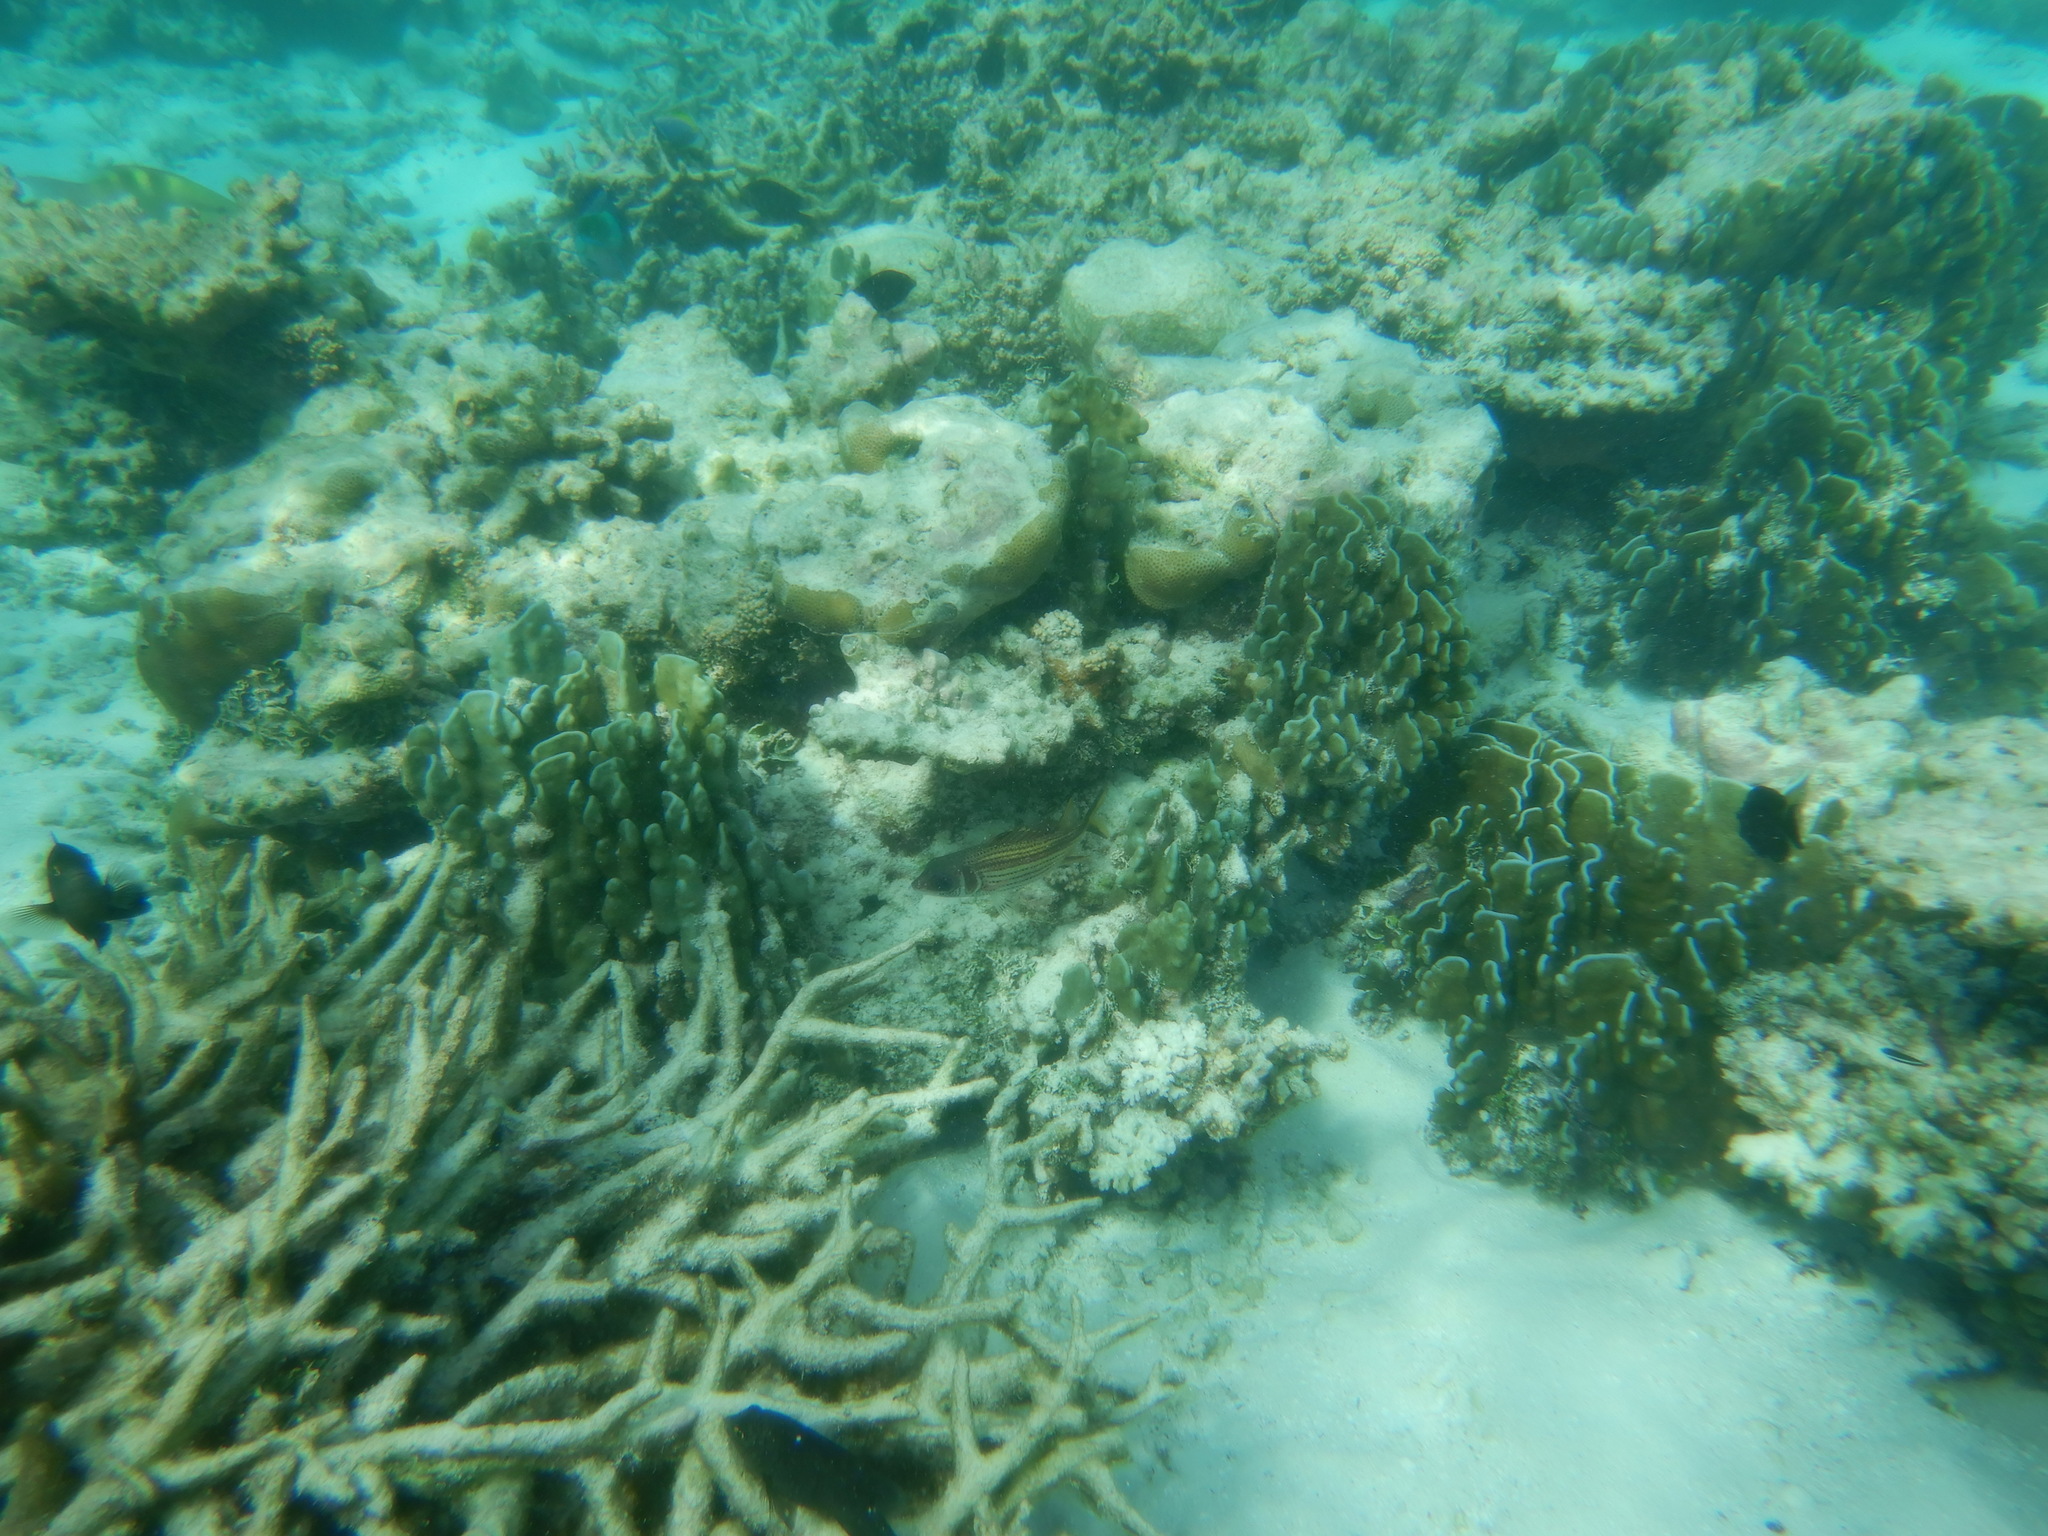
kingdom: Animalia
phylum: Chordata
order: Beryciformes
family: Holocentridae
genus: Neoniphon
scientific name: Neoniphon sammara
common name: Sammara squirrelfish
